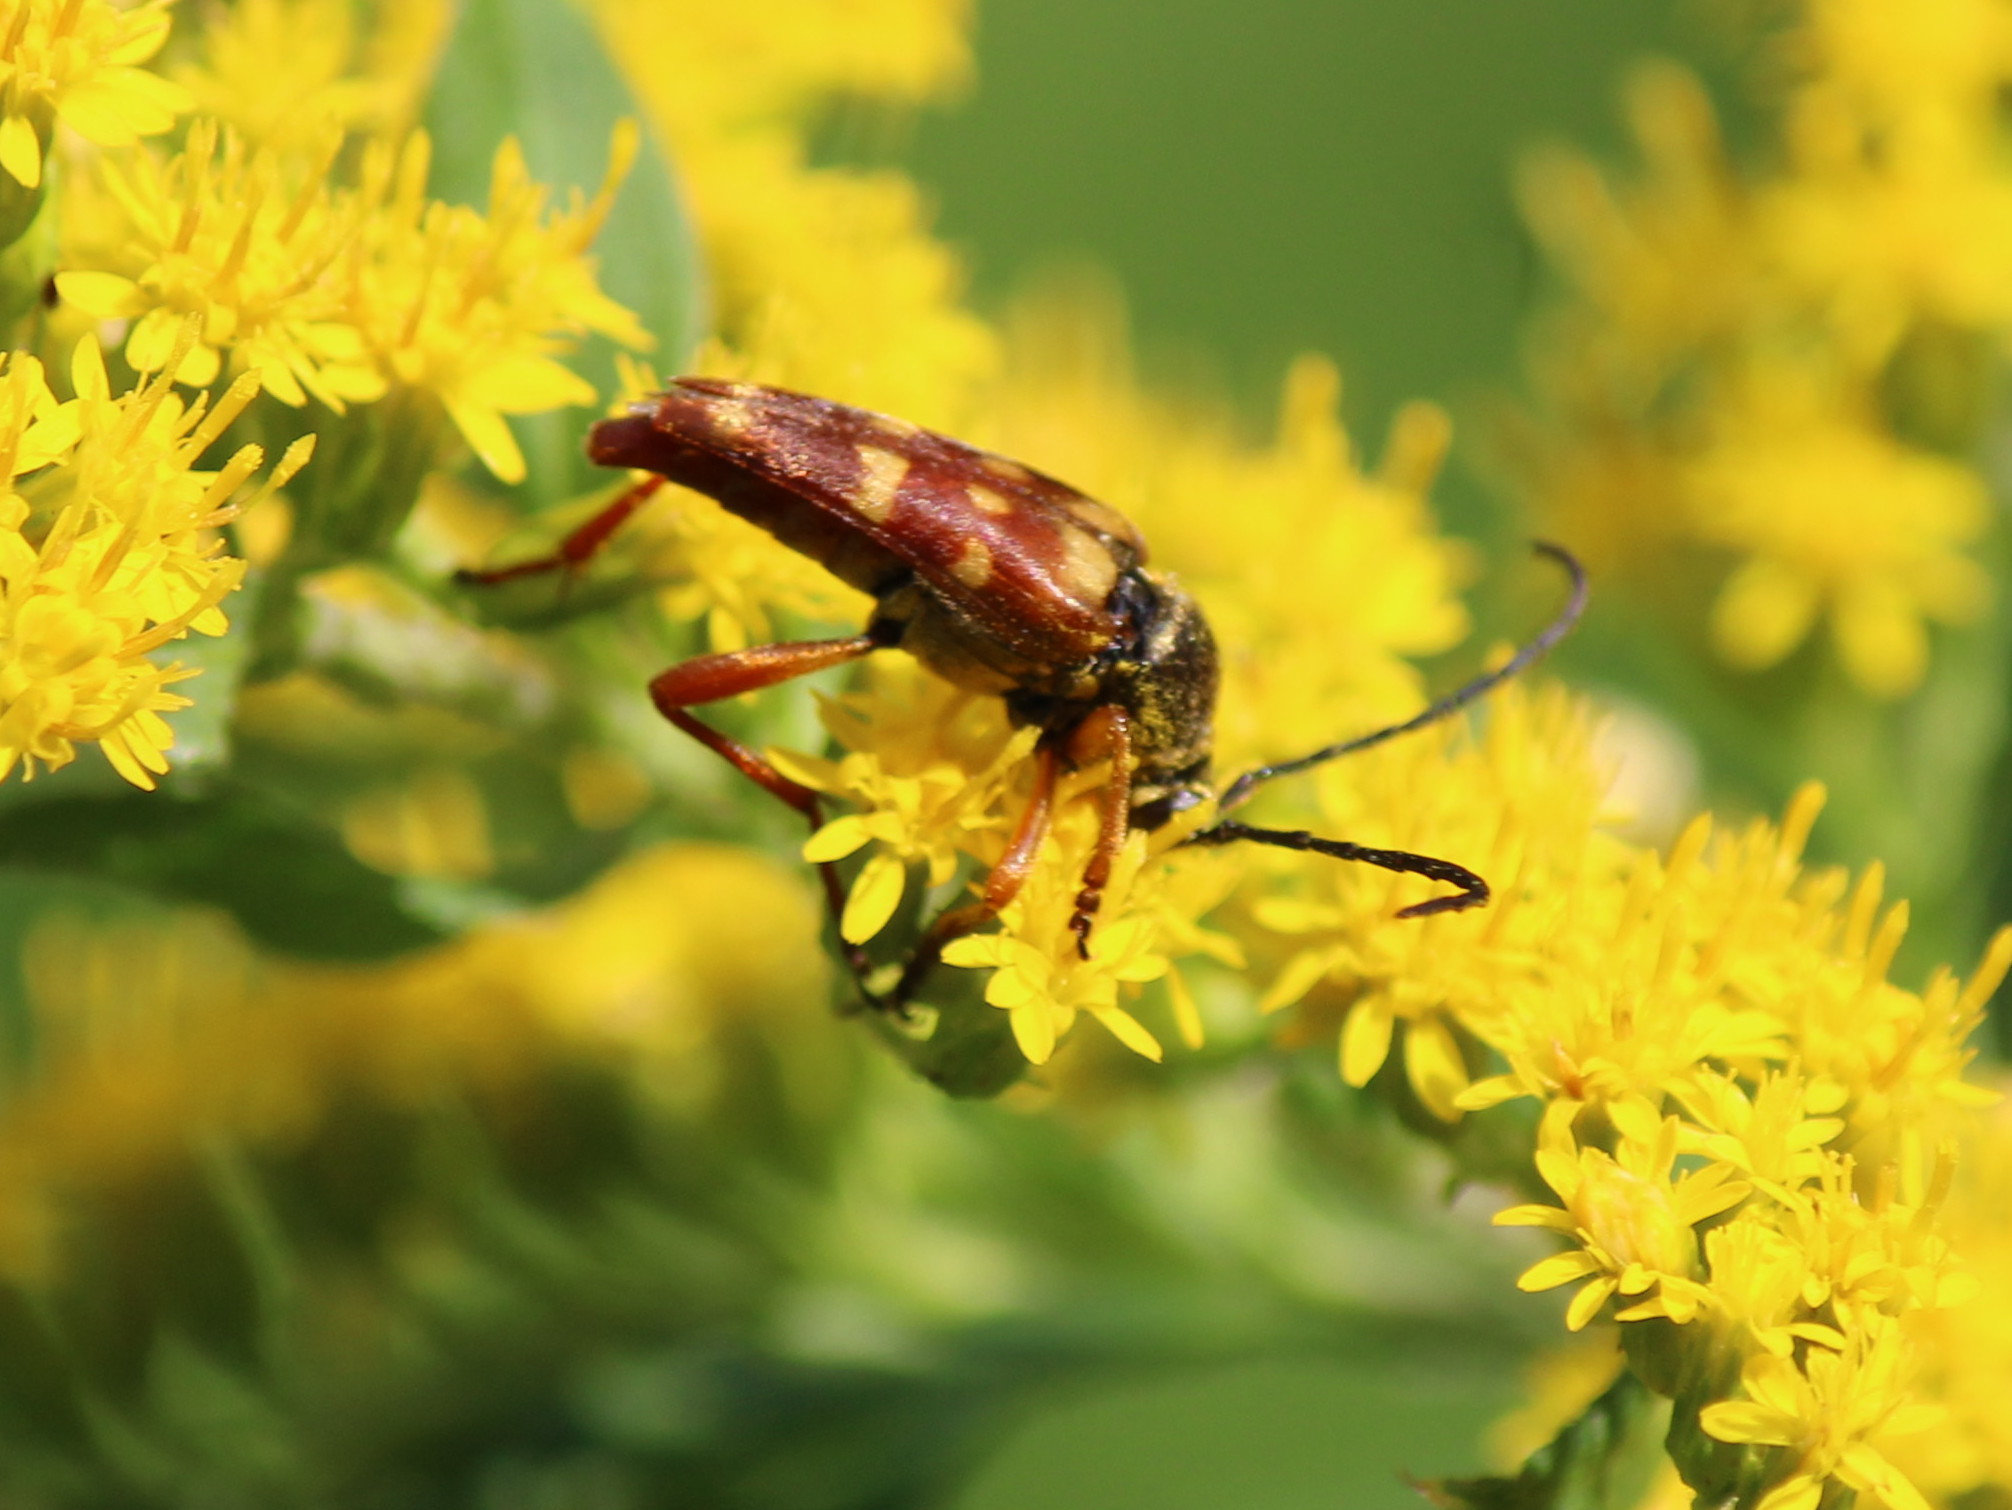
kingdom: Animalia
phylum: Arthropoda
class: Insecta
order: Coleoptera
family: Cerambycidae
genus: Typocerus
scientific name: Typocerus velutinus
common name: Banded longhorn beetle
